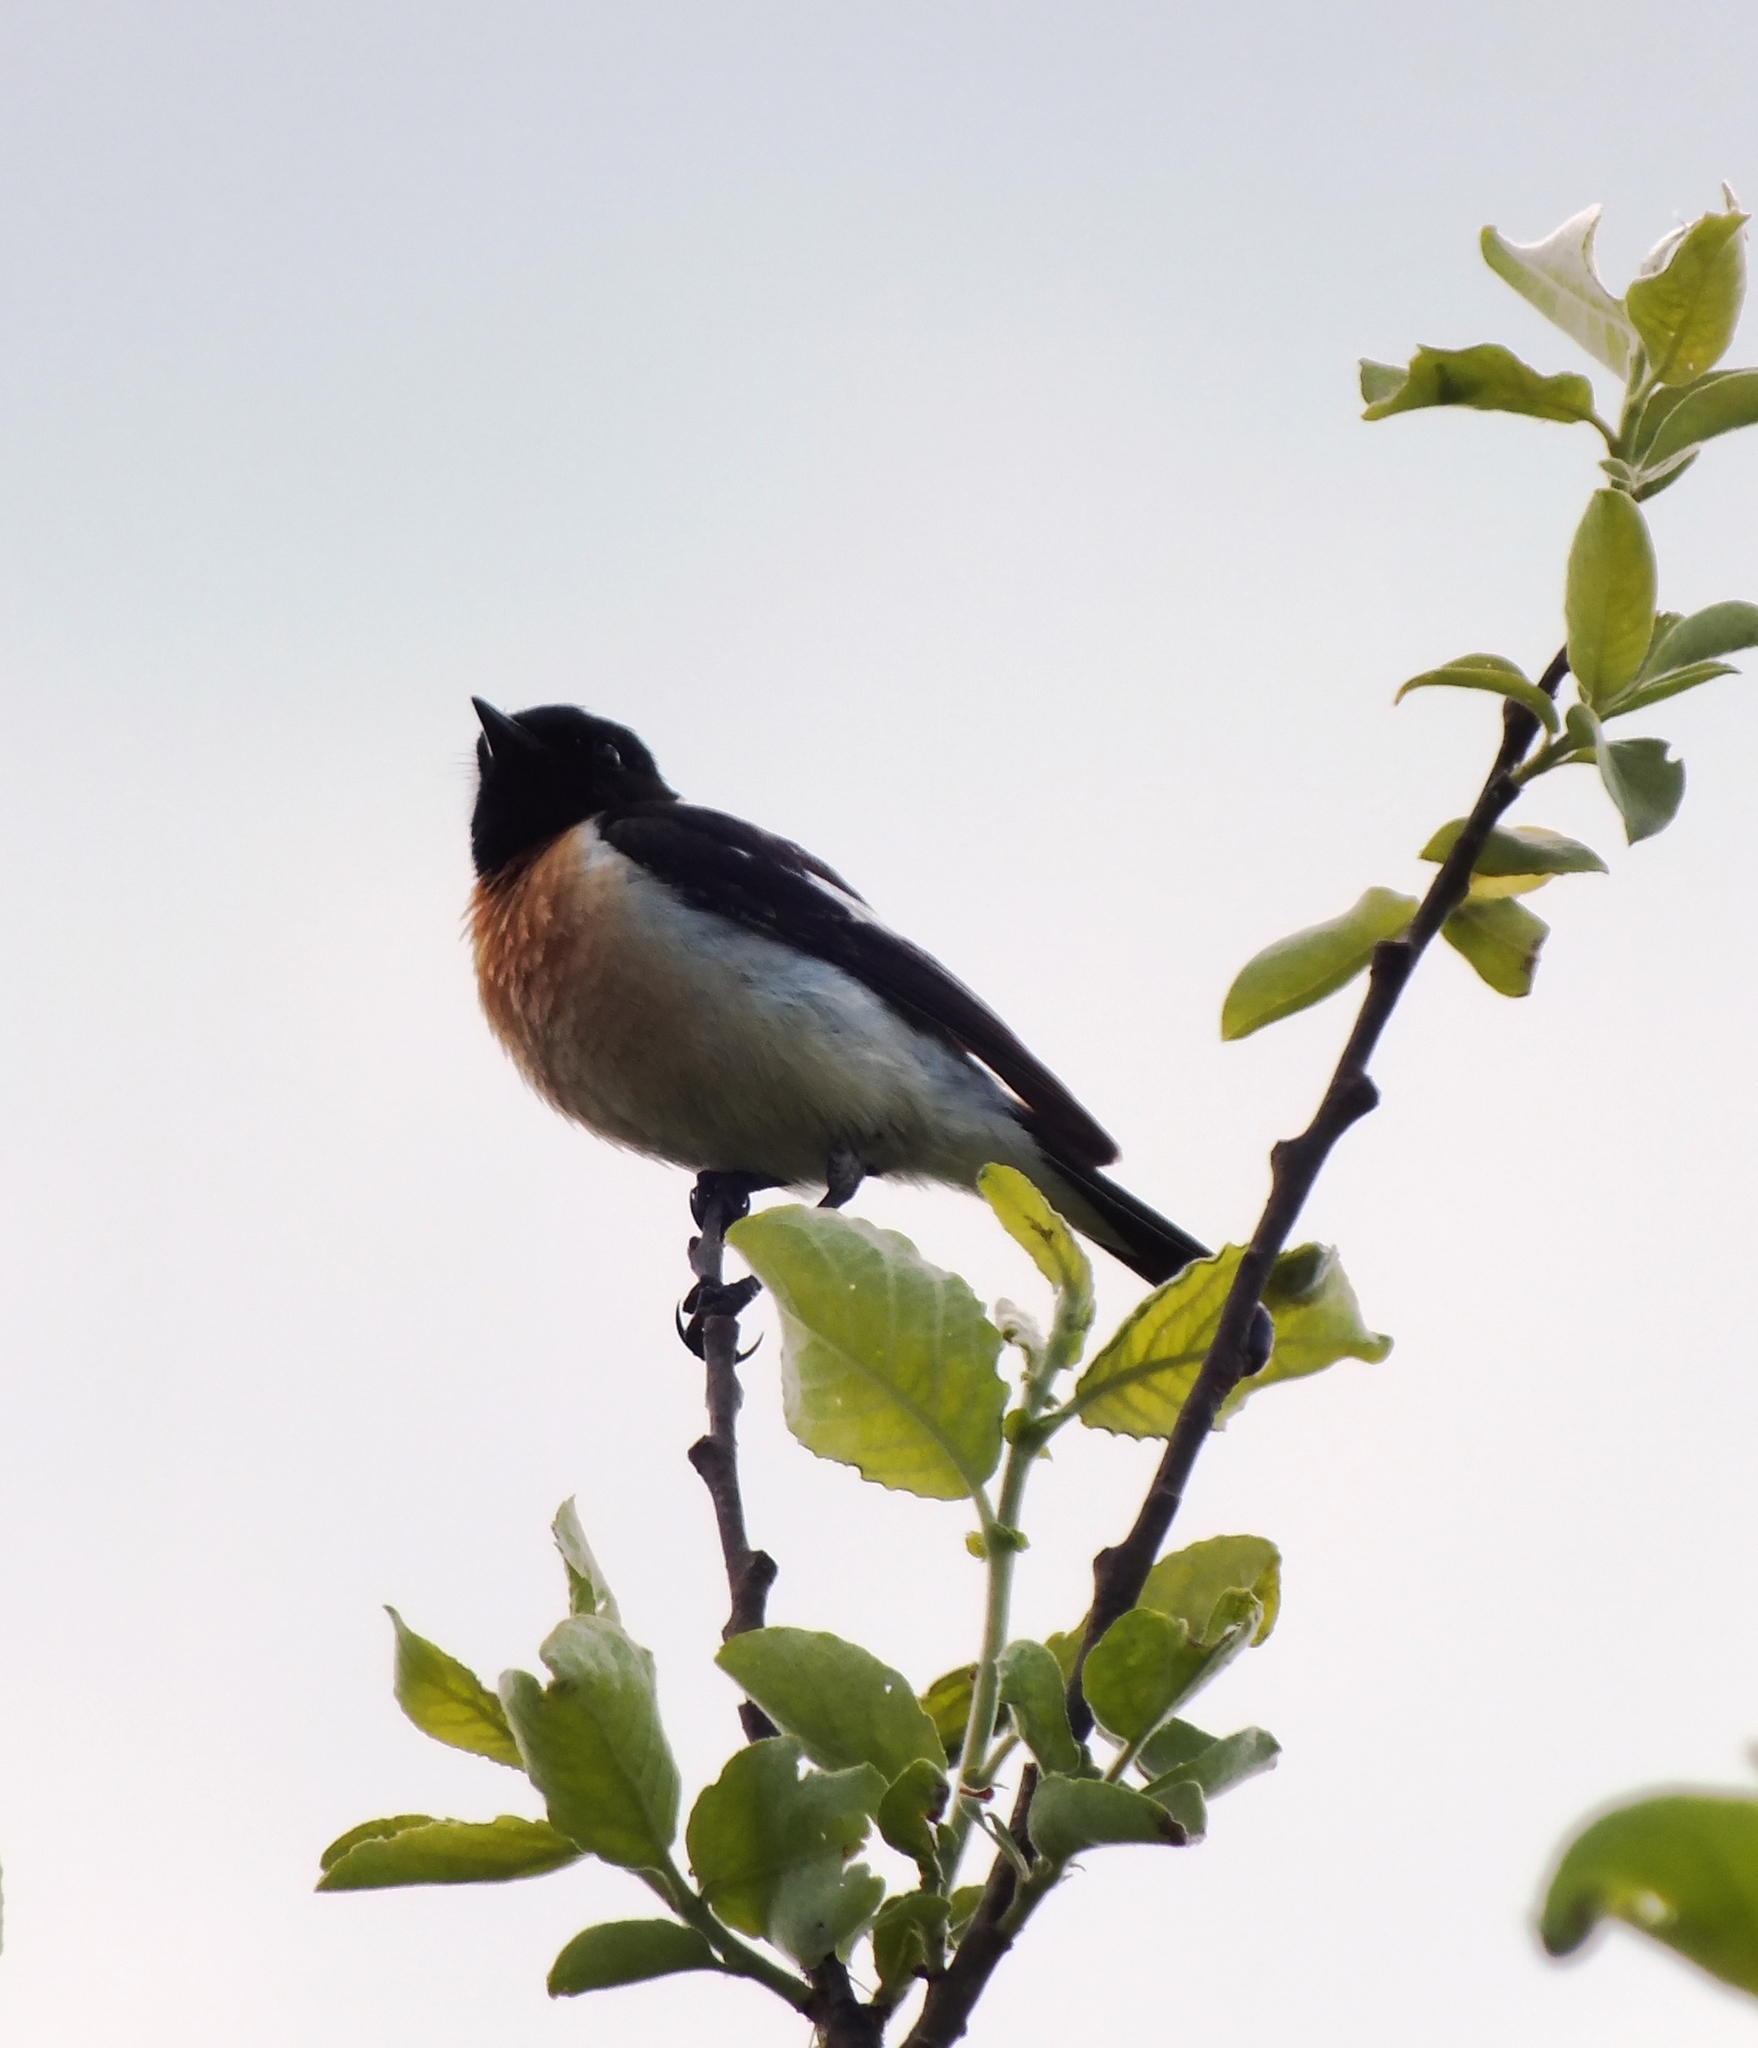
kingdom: Animalia
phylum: Chordata
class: Aves
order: Passeriformes
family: Muscicapidae
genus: Saxicola
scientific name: Saxicola maurus
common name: Siberian stonechat
